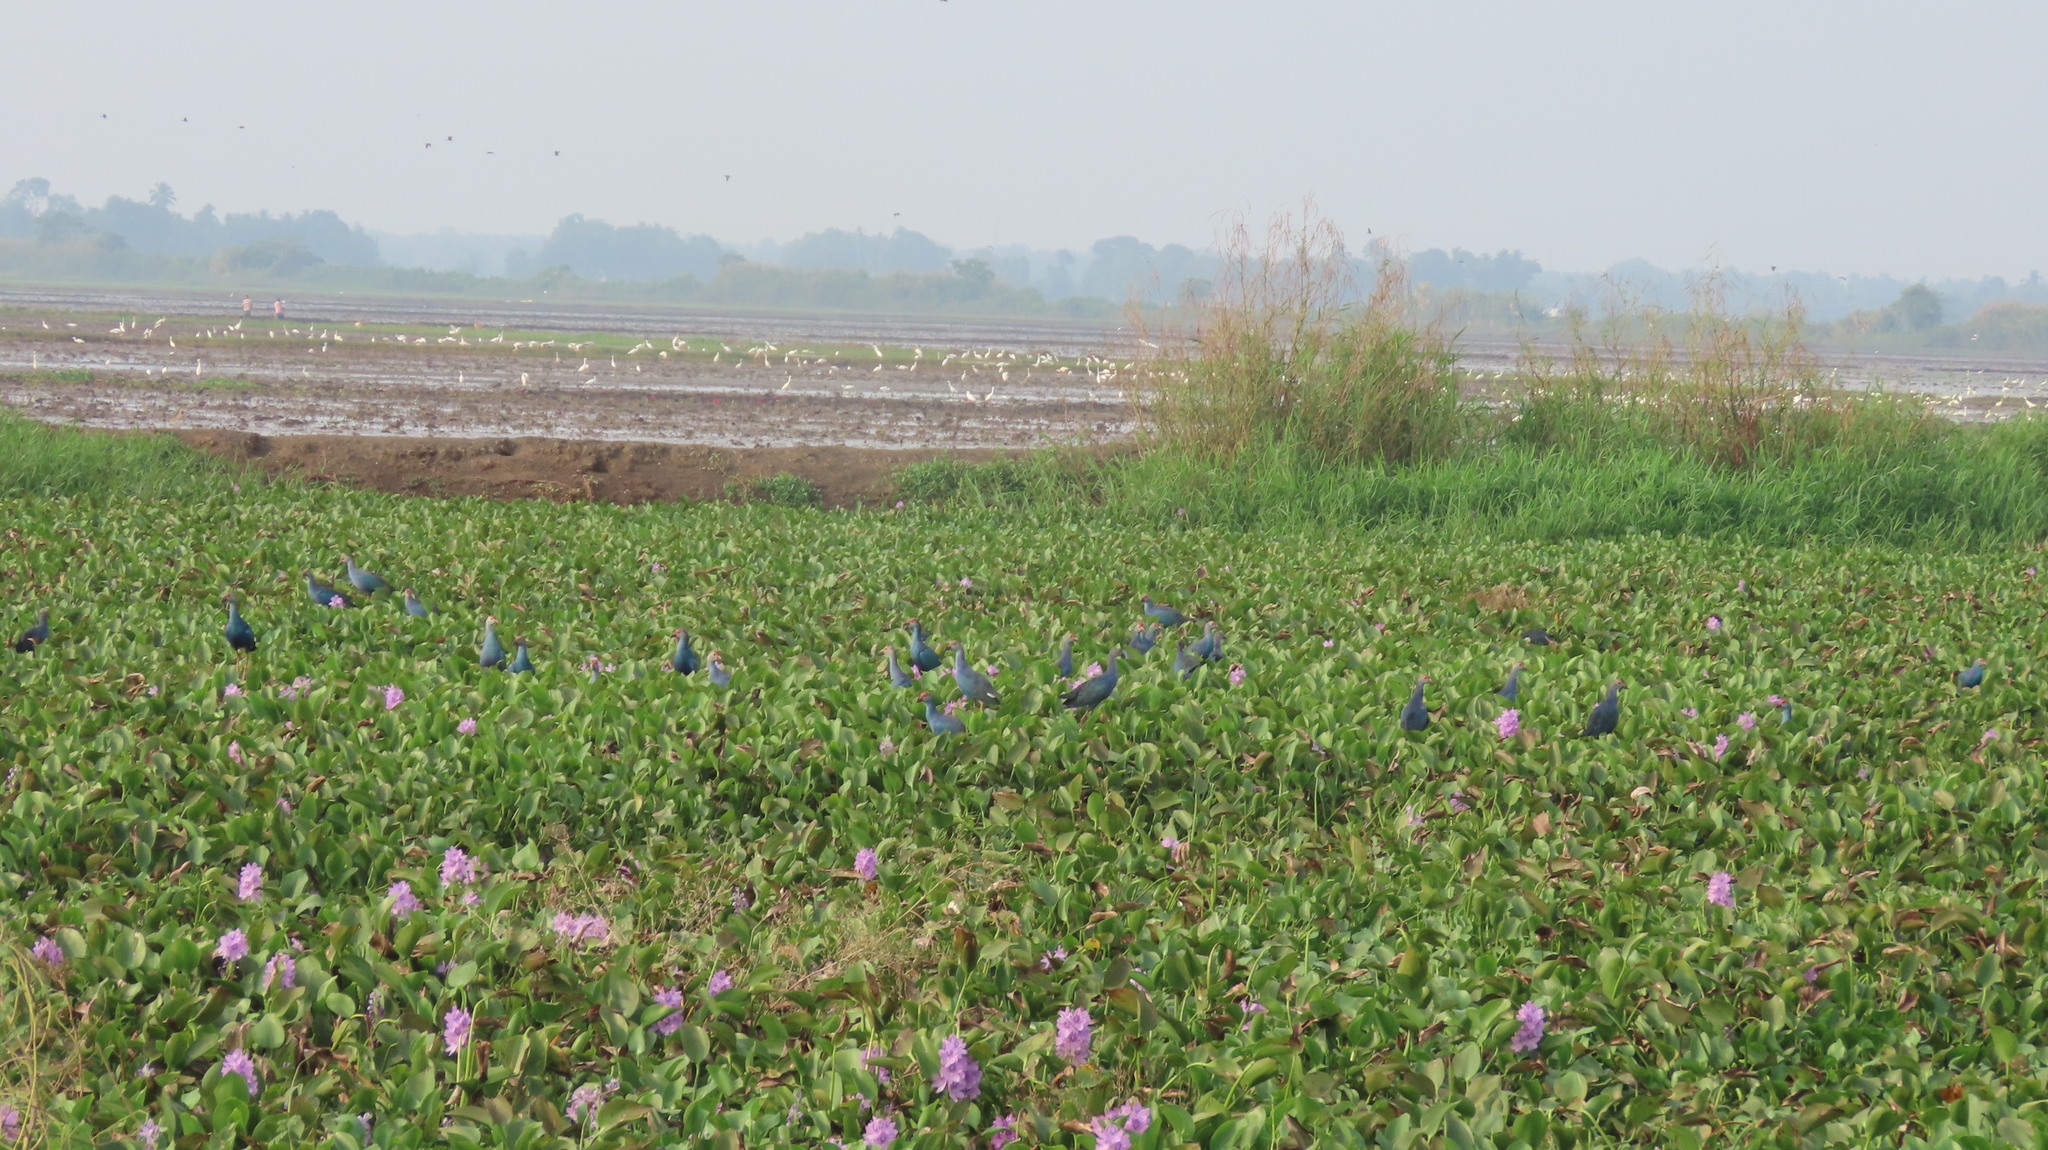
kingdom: Plantae
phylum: Tracheophyta
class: Liliopsida
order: Commelinales
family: Pontederiaceae
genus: Pontederia
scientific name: Pontederia crassipes
